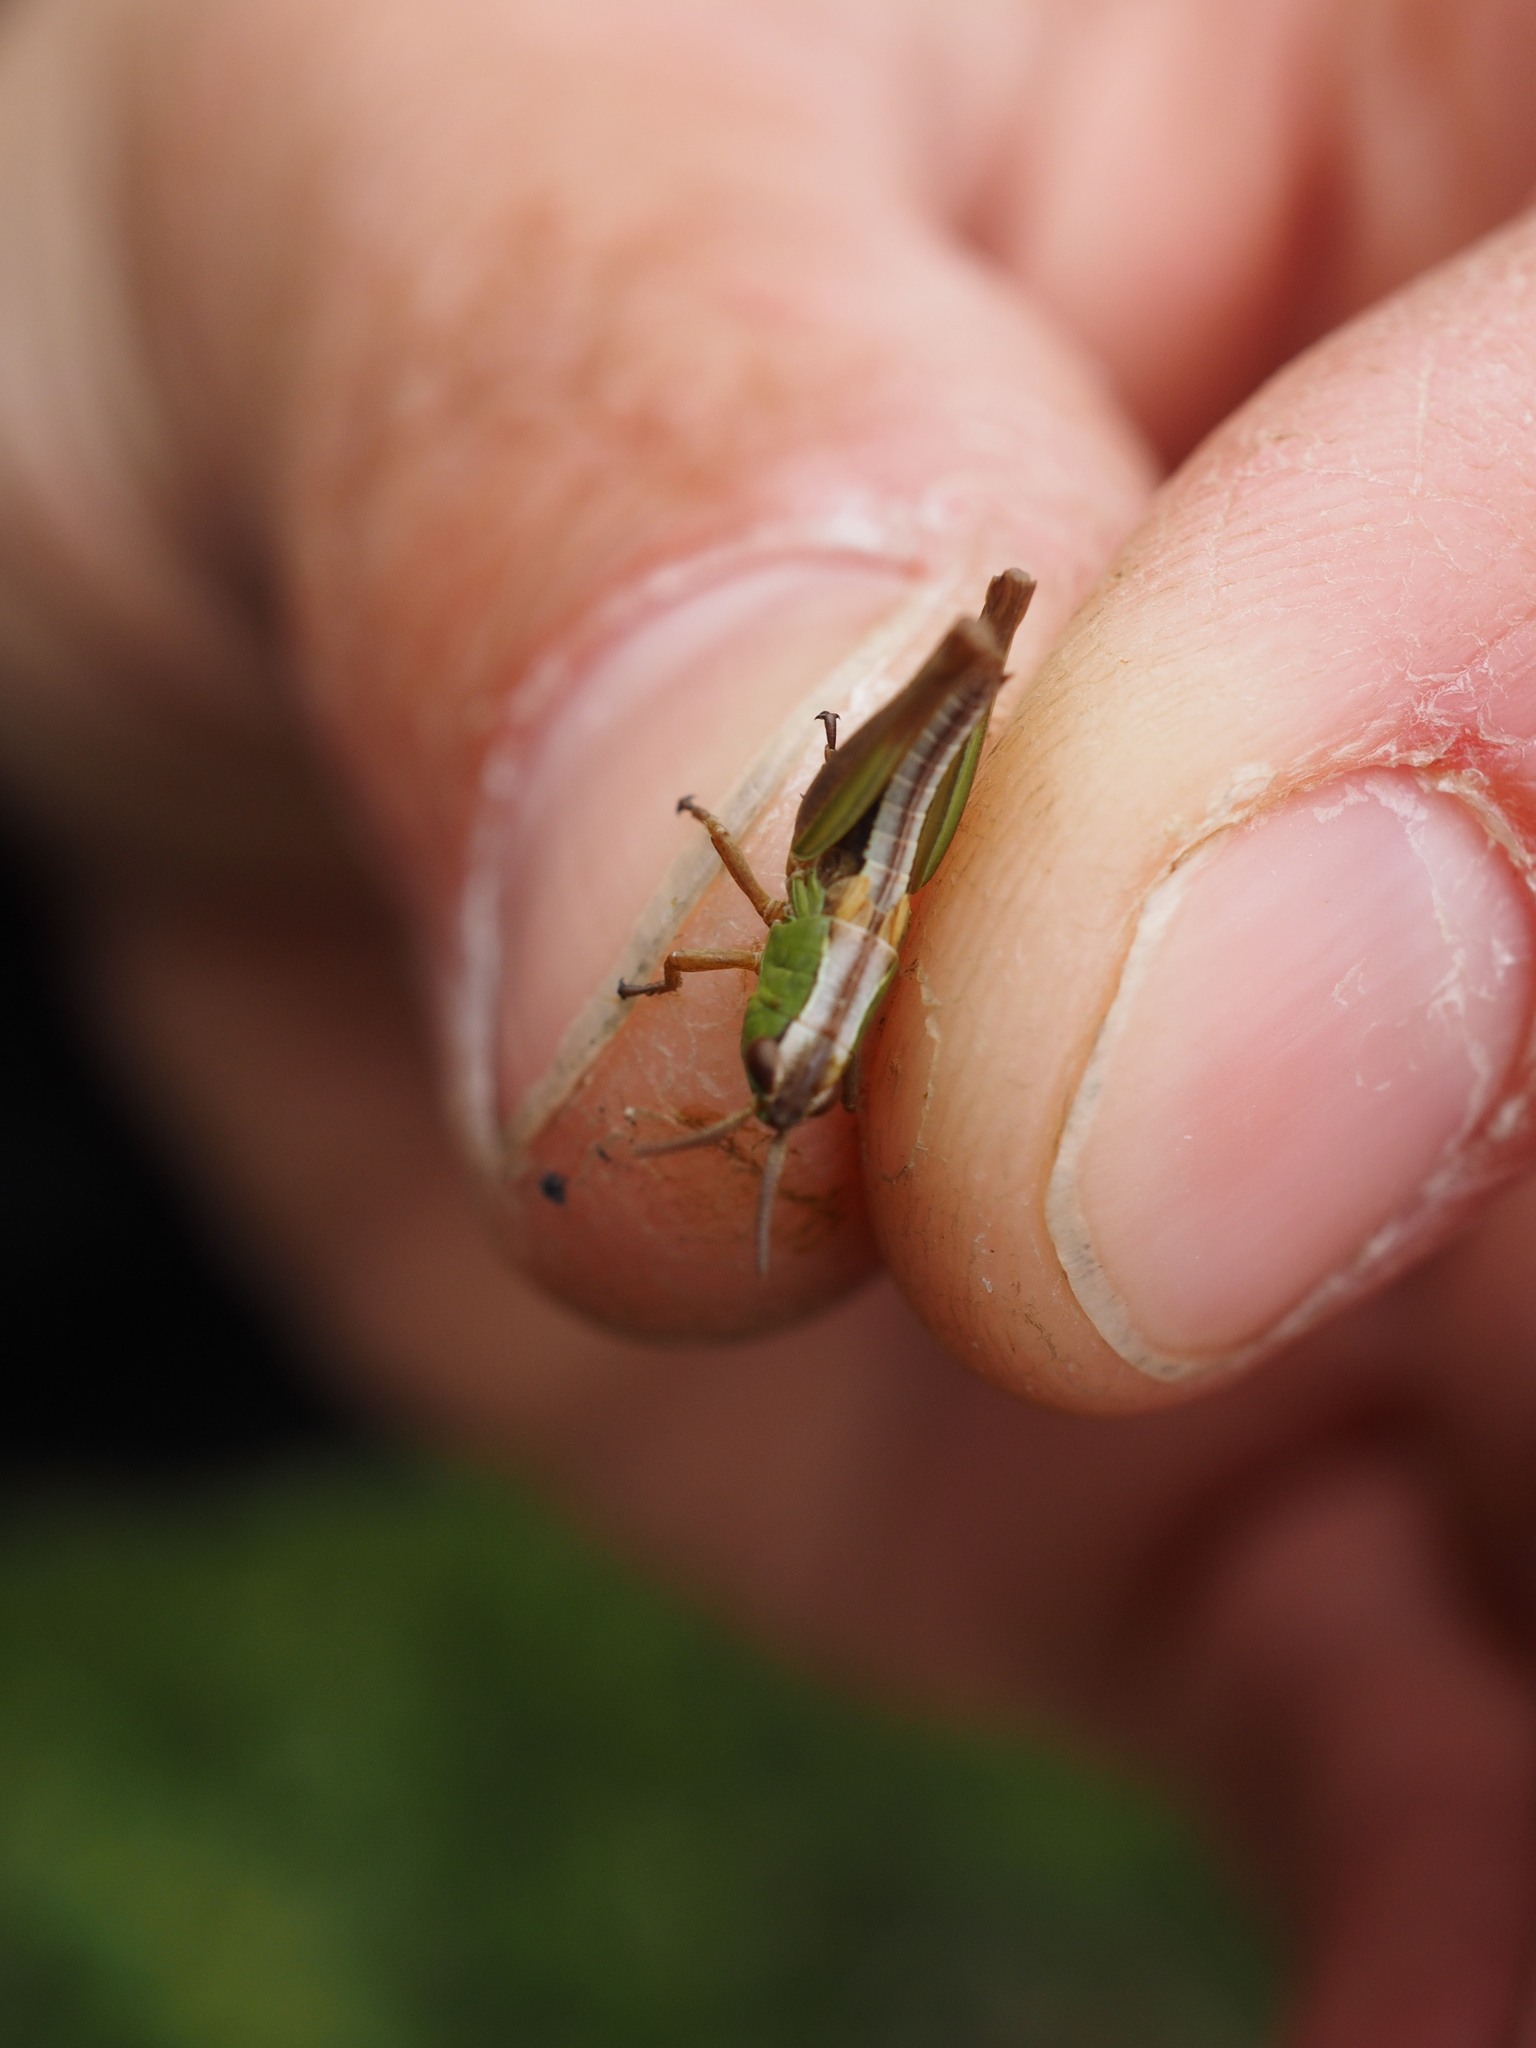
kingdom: Animalia
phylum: Arthropoda
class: Insecta
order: Orthoptera
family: Acrididae
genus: Pseudochorthippus
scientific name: Pseudochorthippus parallelus
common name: Meadow grasshopper
